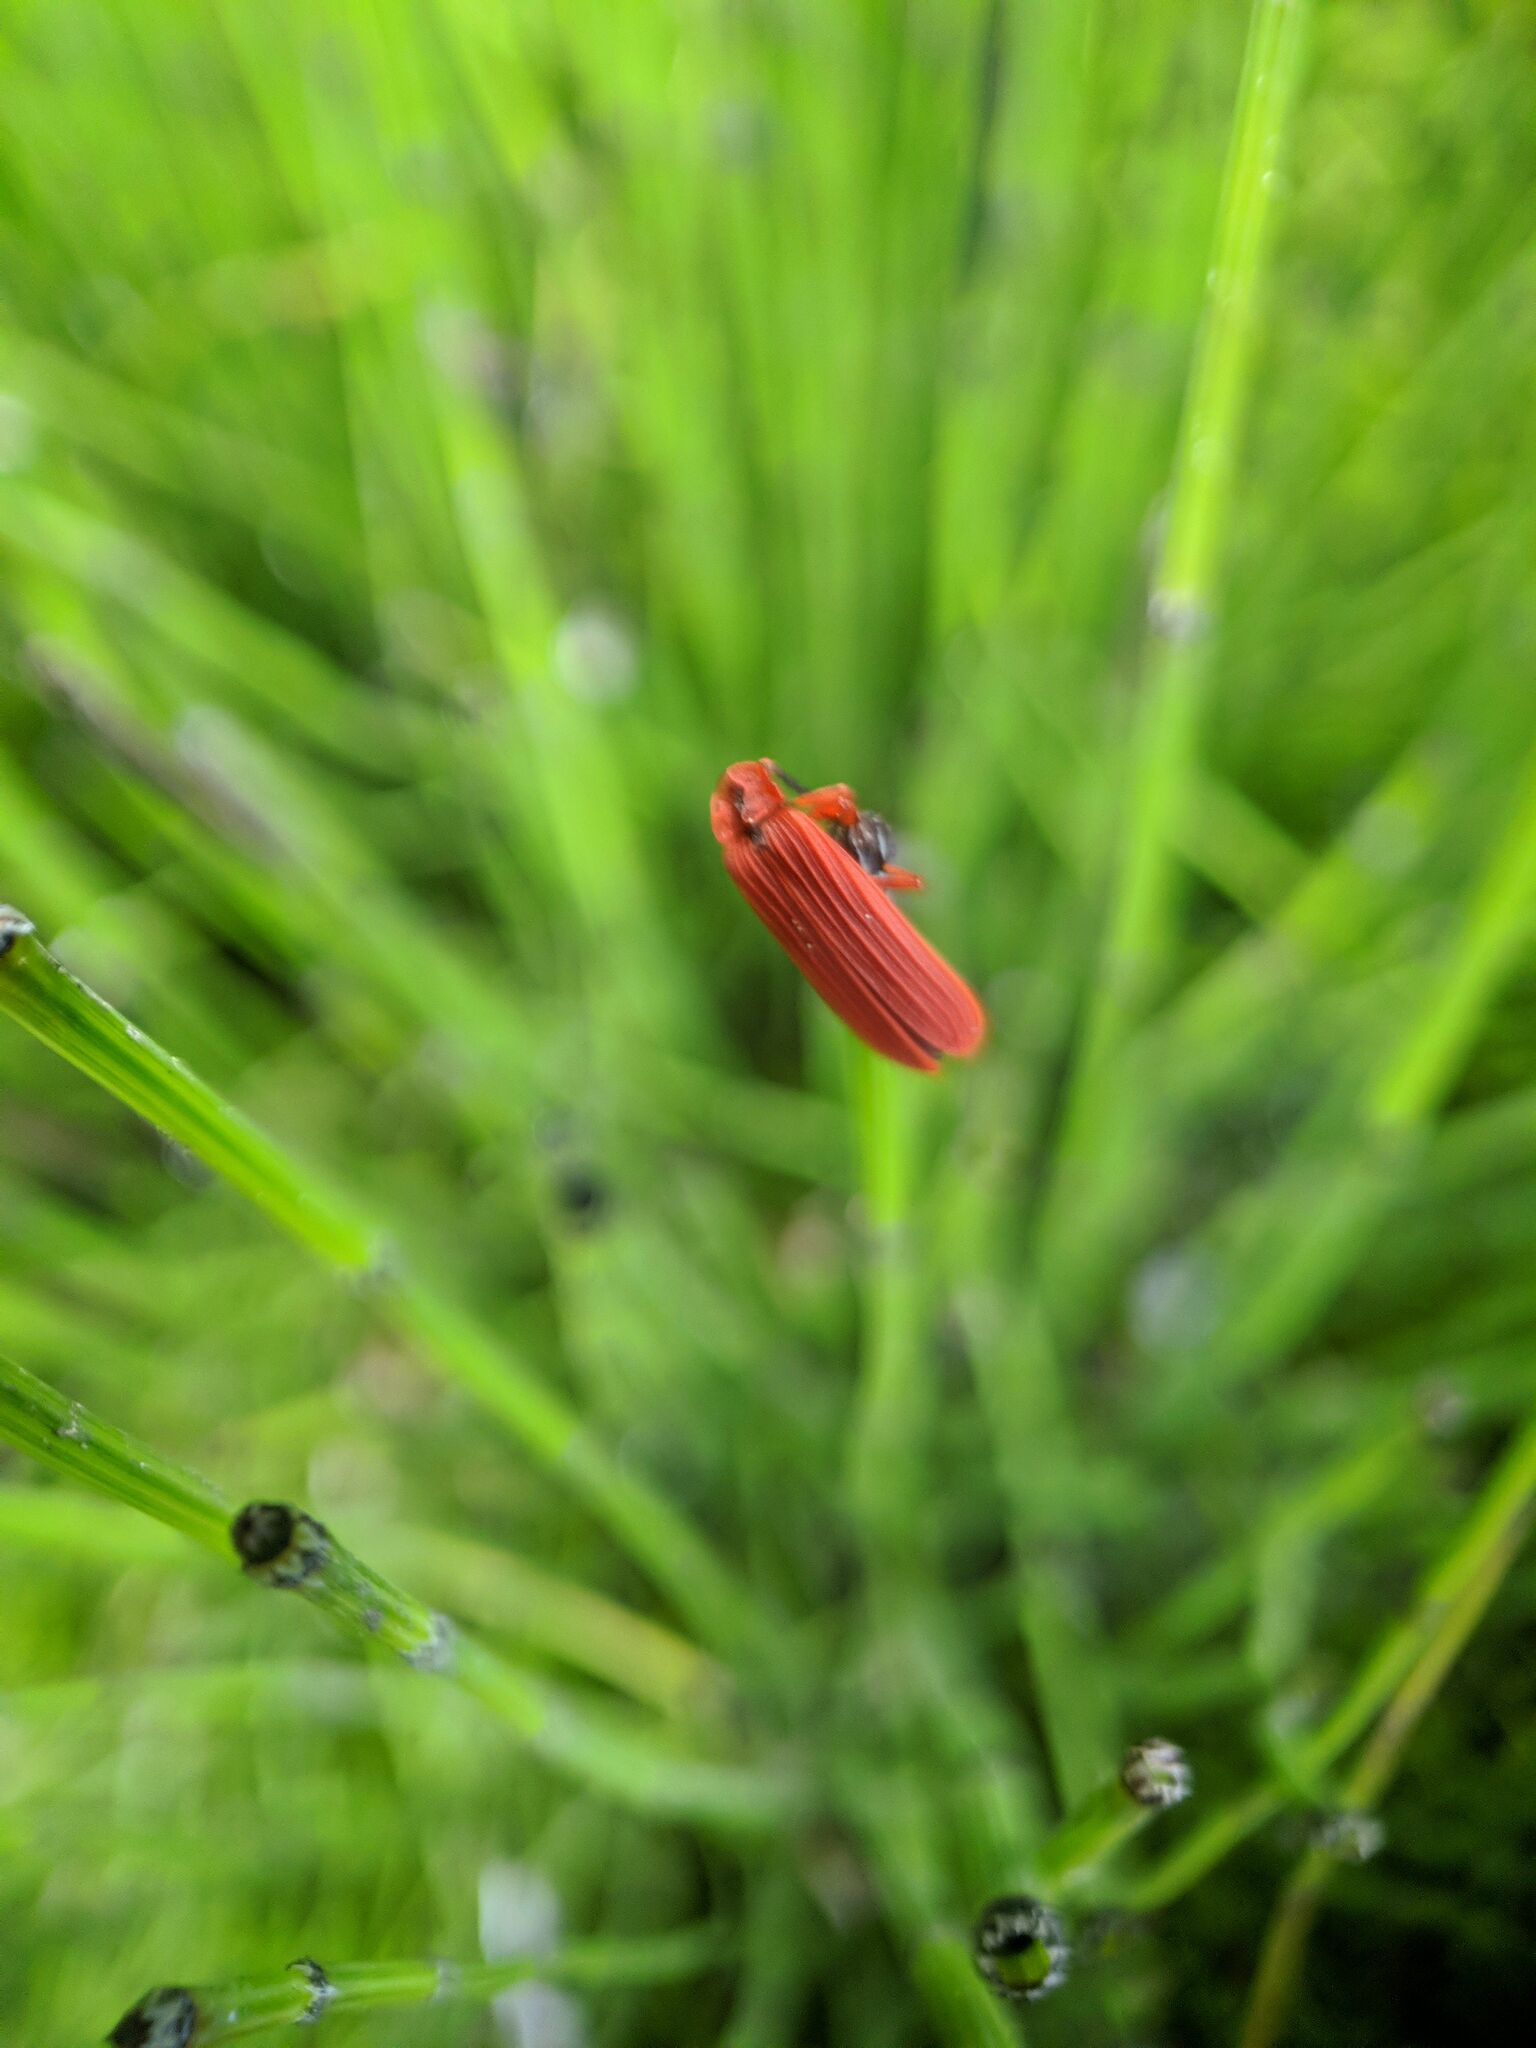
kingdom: Animalia
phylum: Arthropoda
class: Insecta
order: Coleoptera
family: Lycidae
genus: Dictyoptera
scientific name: Dictyoptera simplicipes
